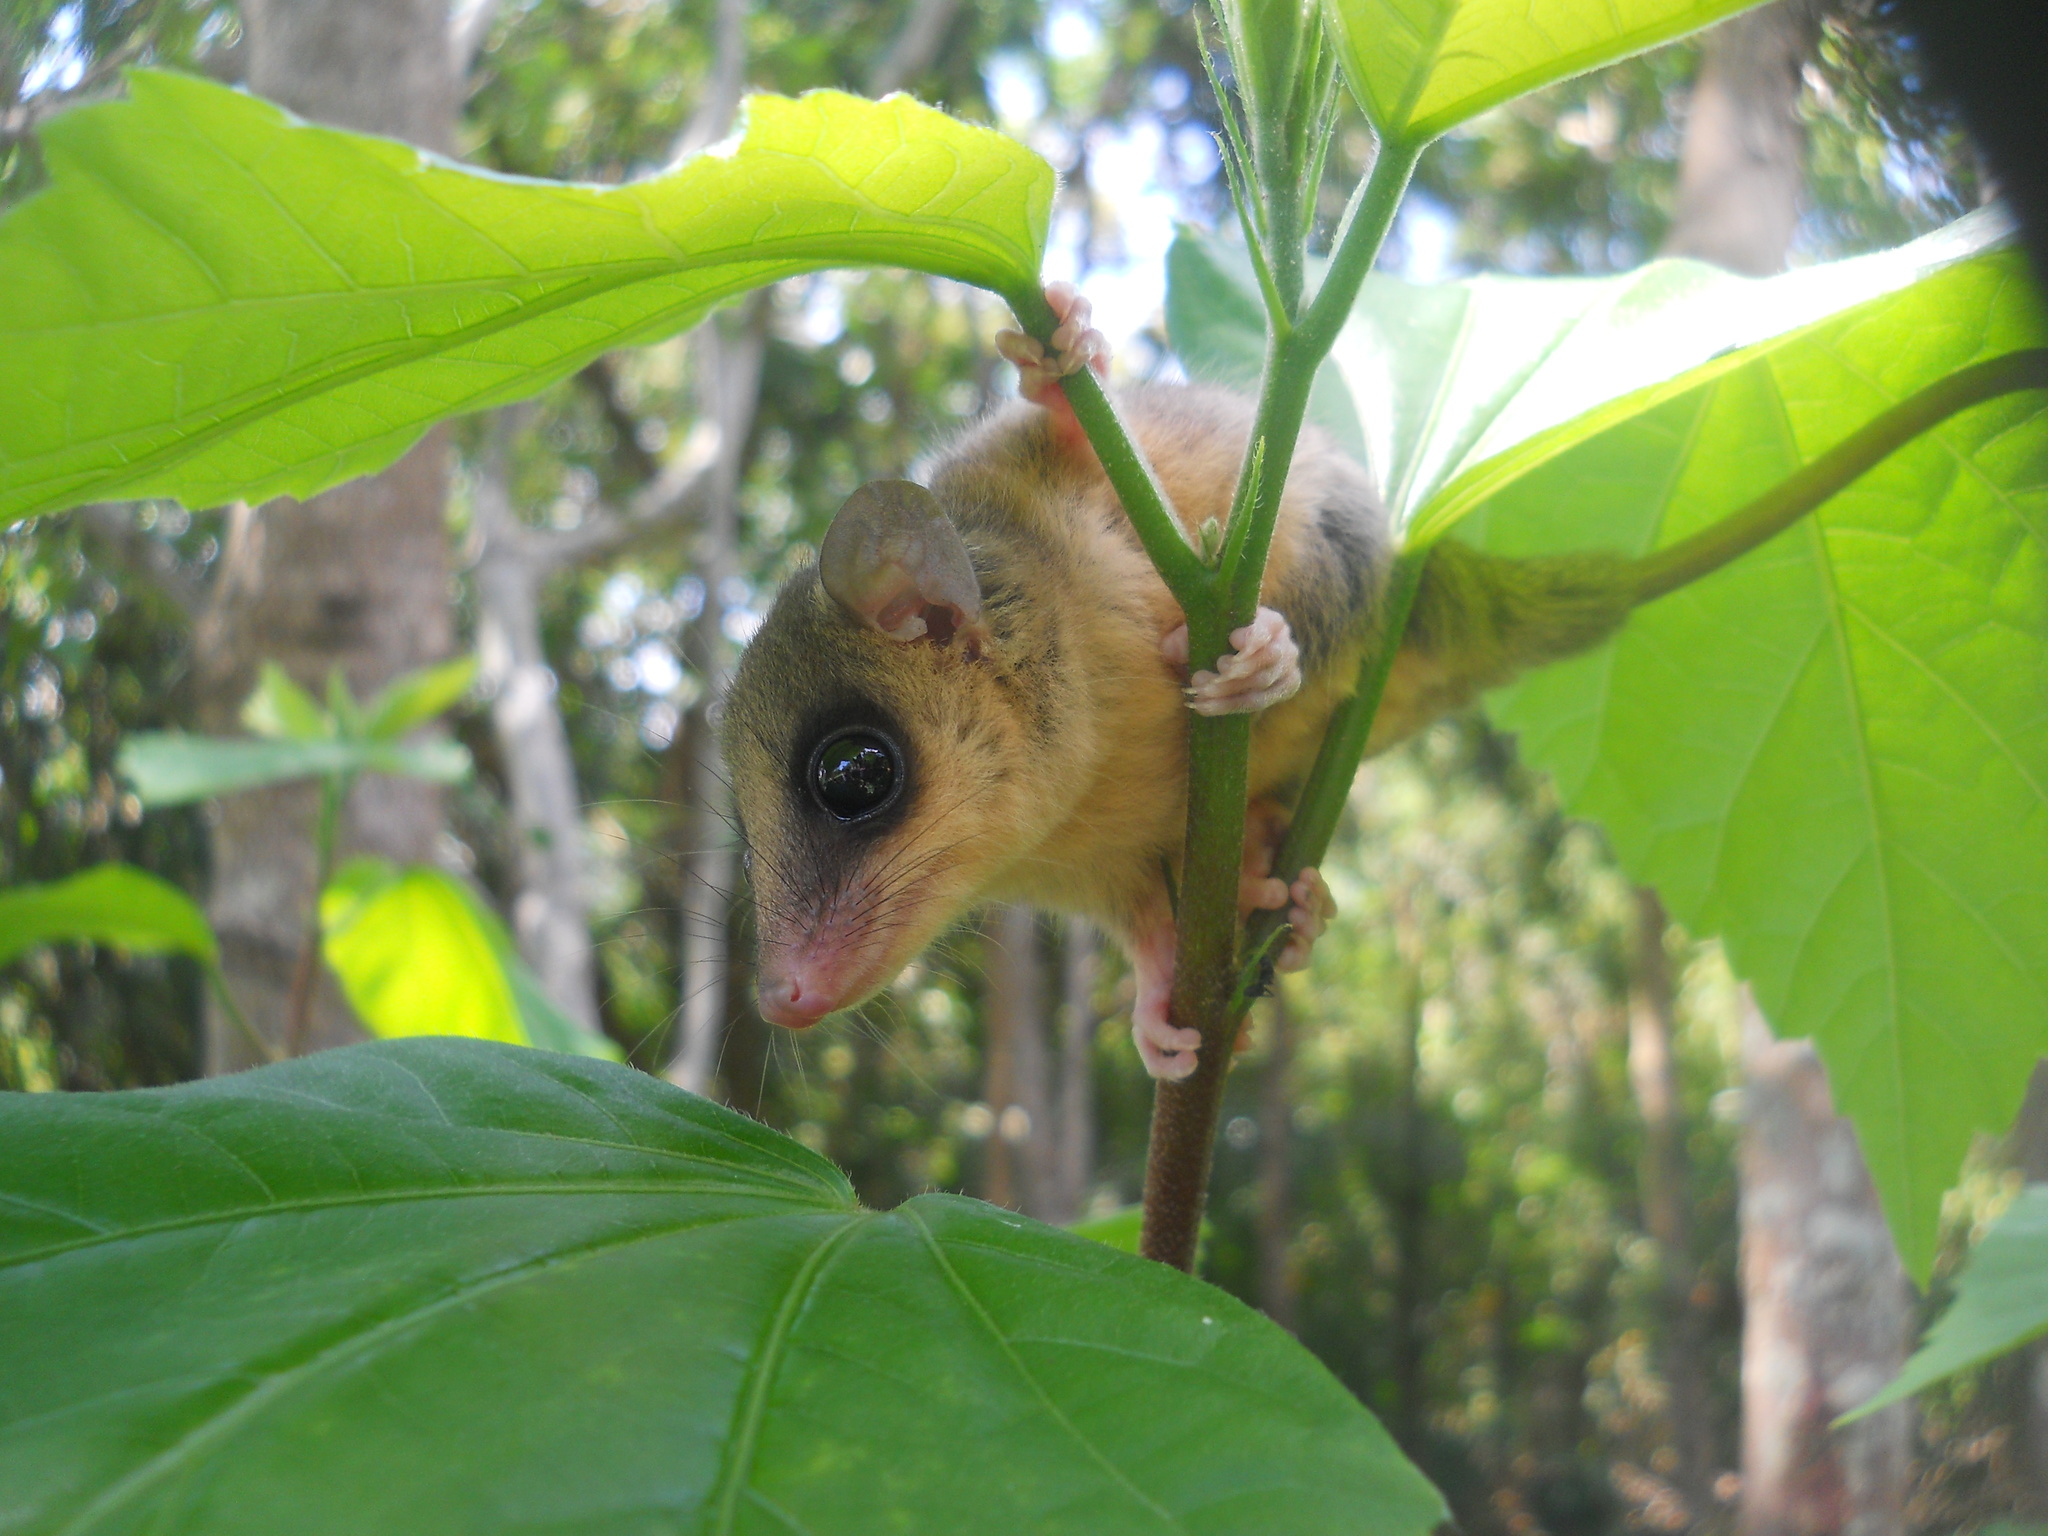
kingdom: Animalia
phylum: Chordata
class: Mammalia
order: Didelphimorphia
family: Didelphidae
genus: Gracilinanus
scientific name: Gracilinanus microtarsus
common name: Brazilian gracile opossum
